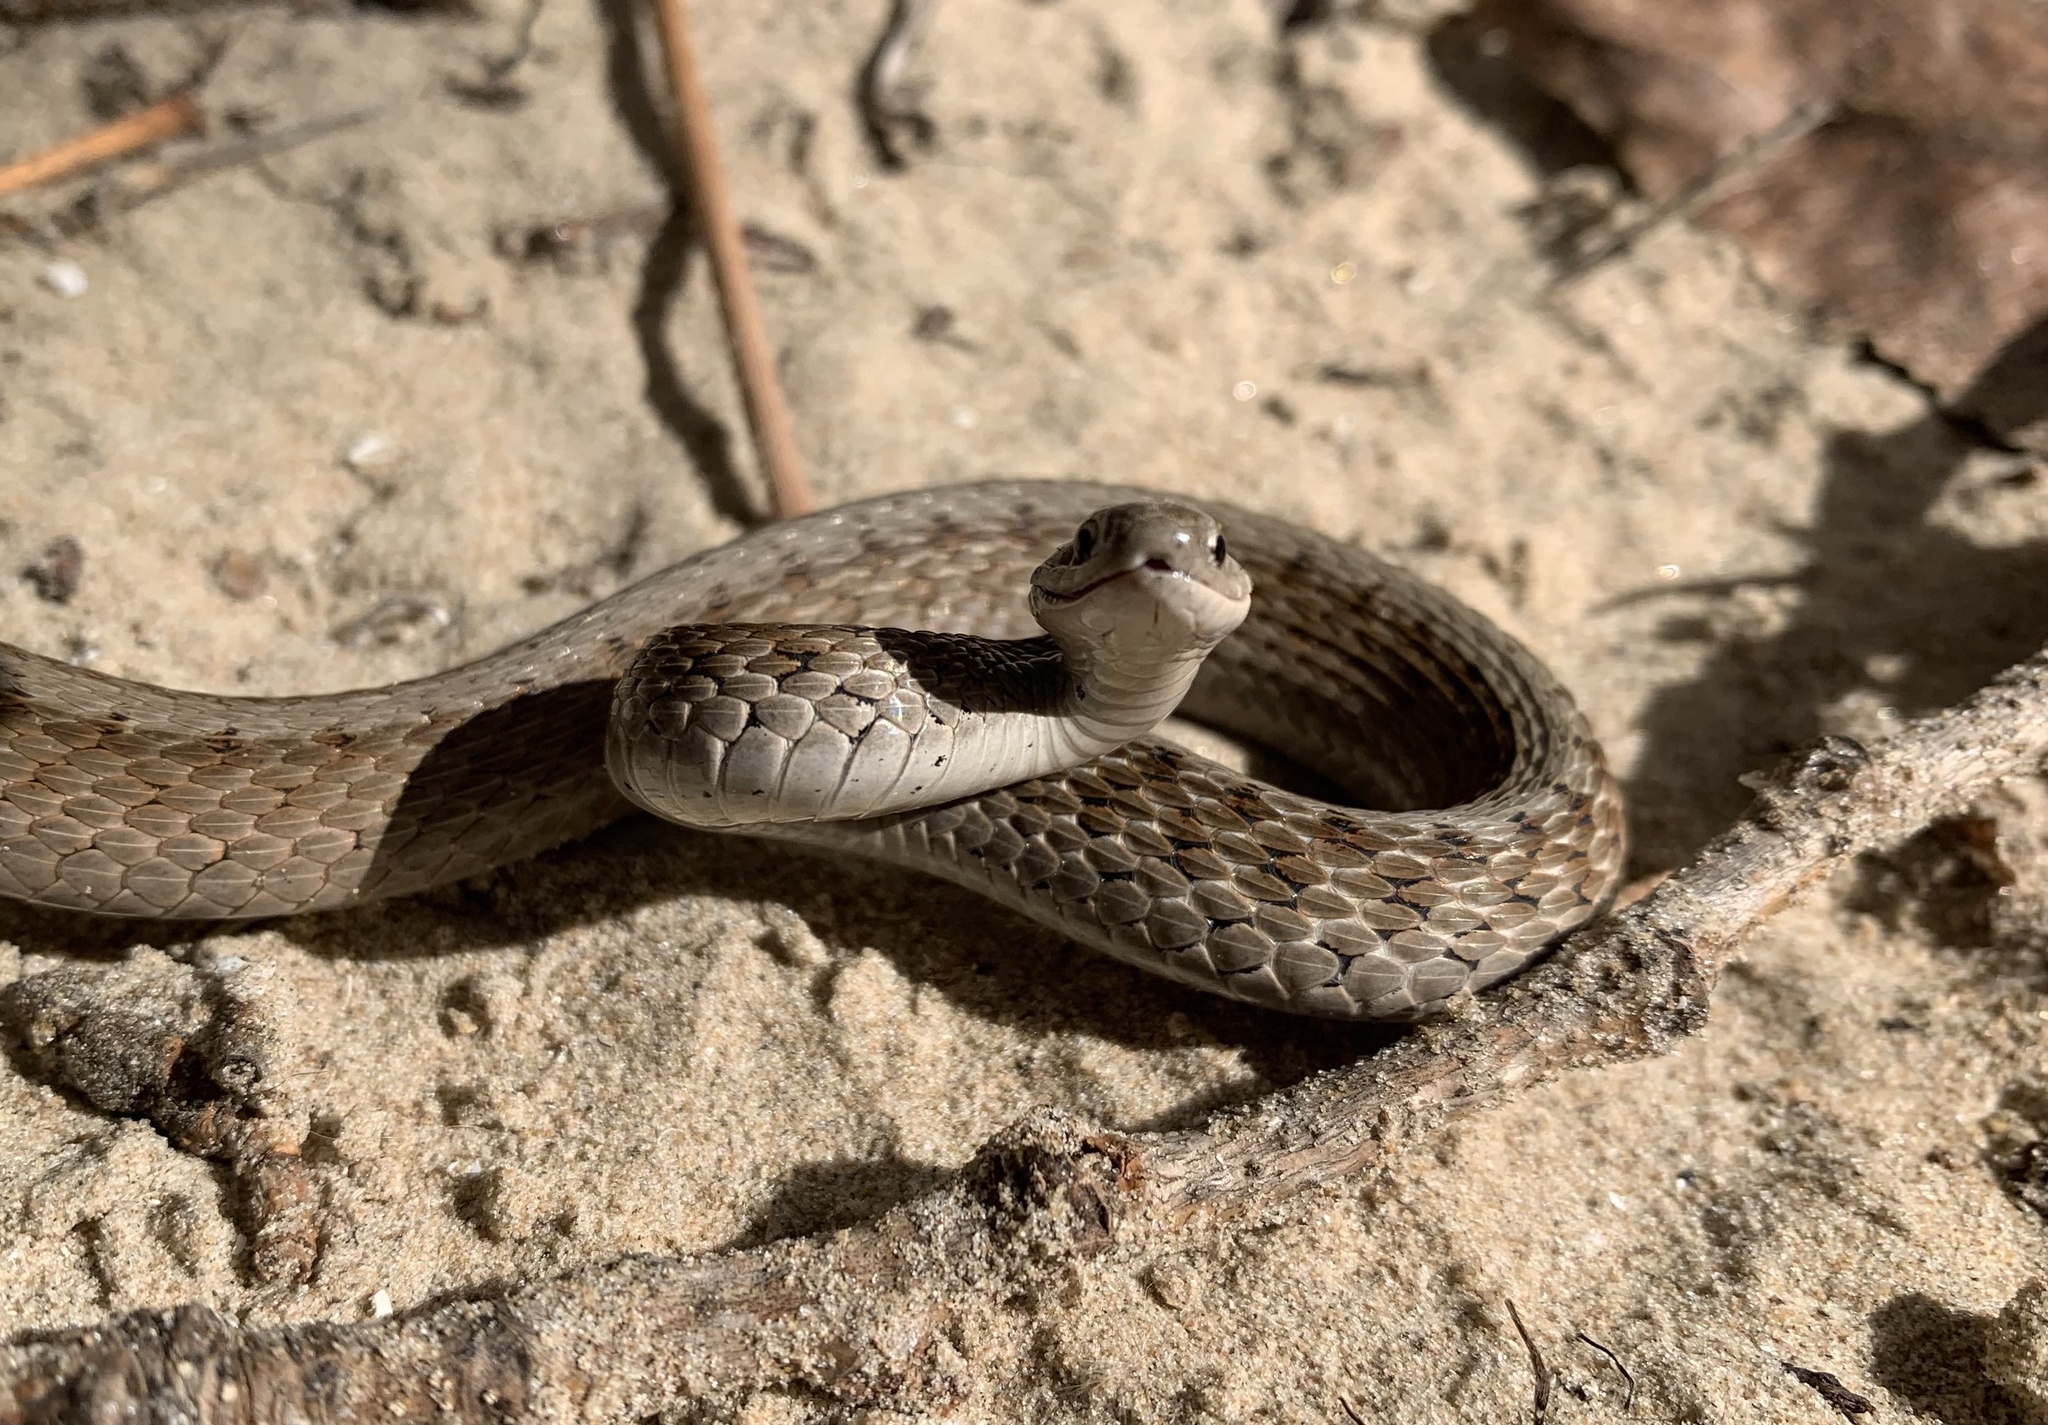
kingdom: Animalia
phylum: Chordata
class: Squamata
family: Colubridae
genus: Storeria
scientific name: Storeria dekayi
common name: (dekay’s) brown snake
